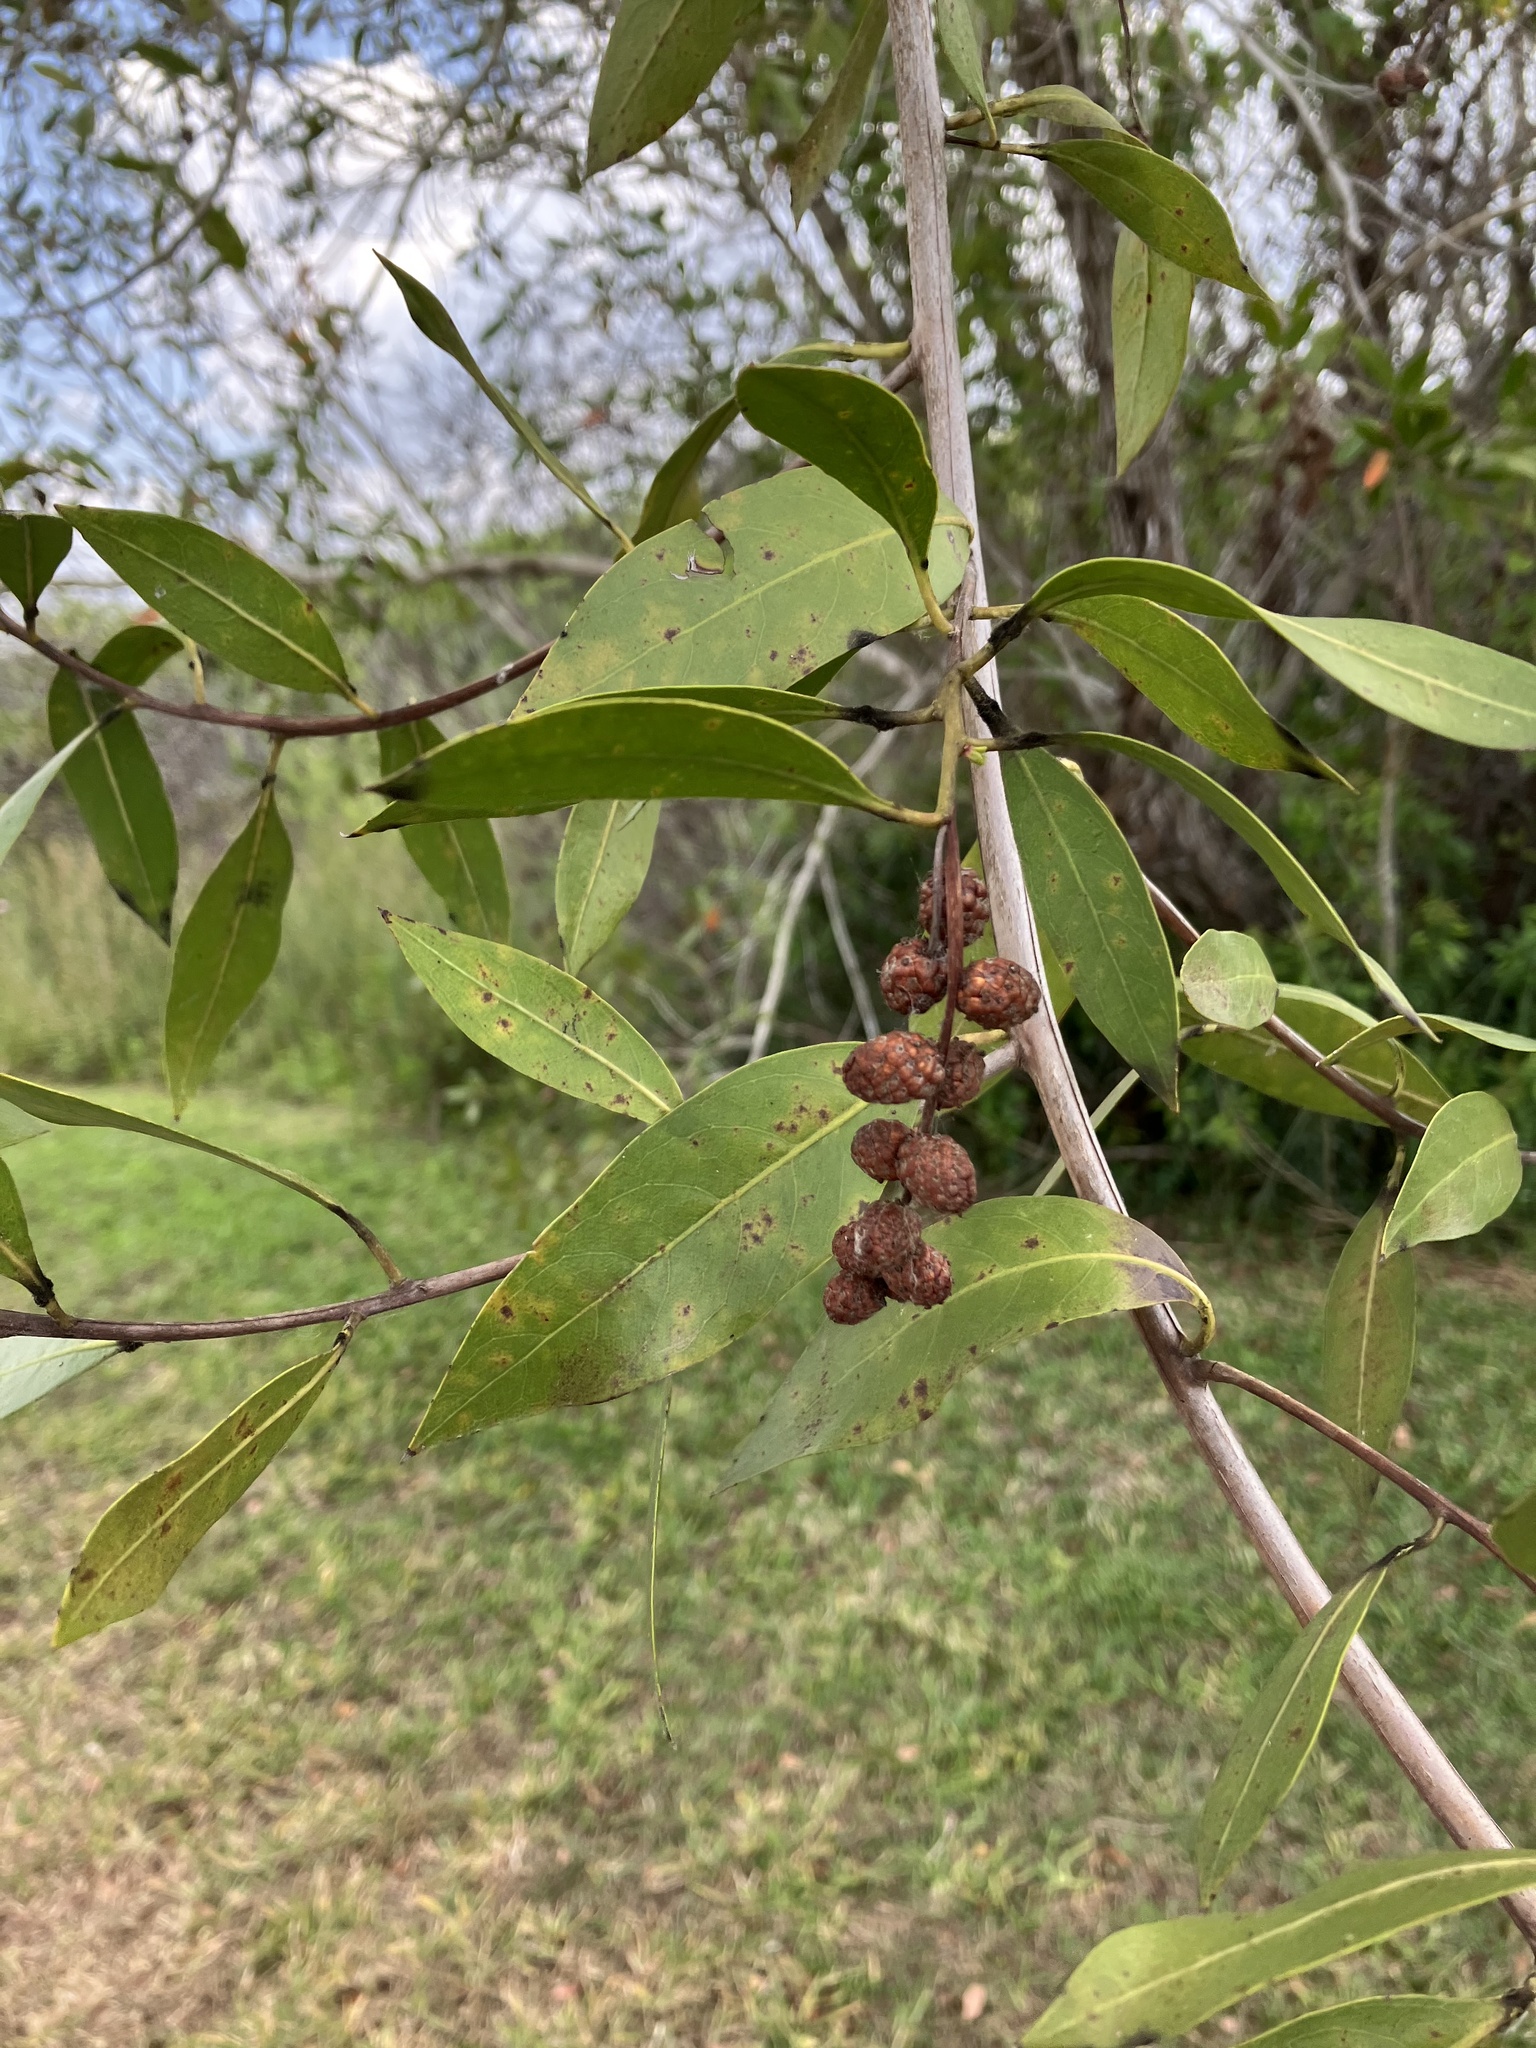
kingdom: Plantae
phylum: Tracheophyta
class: Magnoliopsida
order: Myrtales
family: Combretaceae
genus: Conocarpus
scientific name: Conocarpus erectus
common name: Button mangrove
